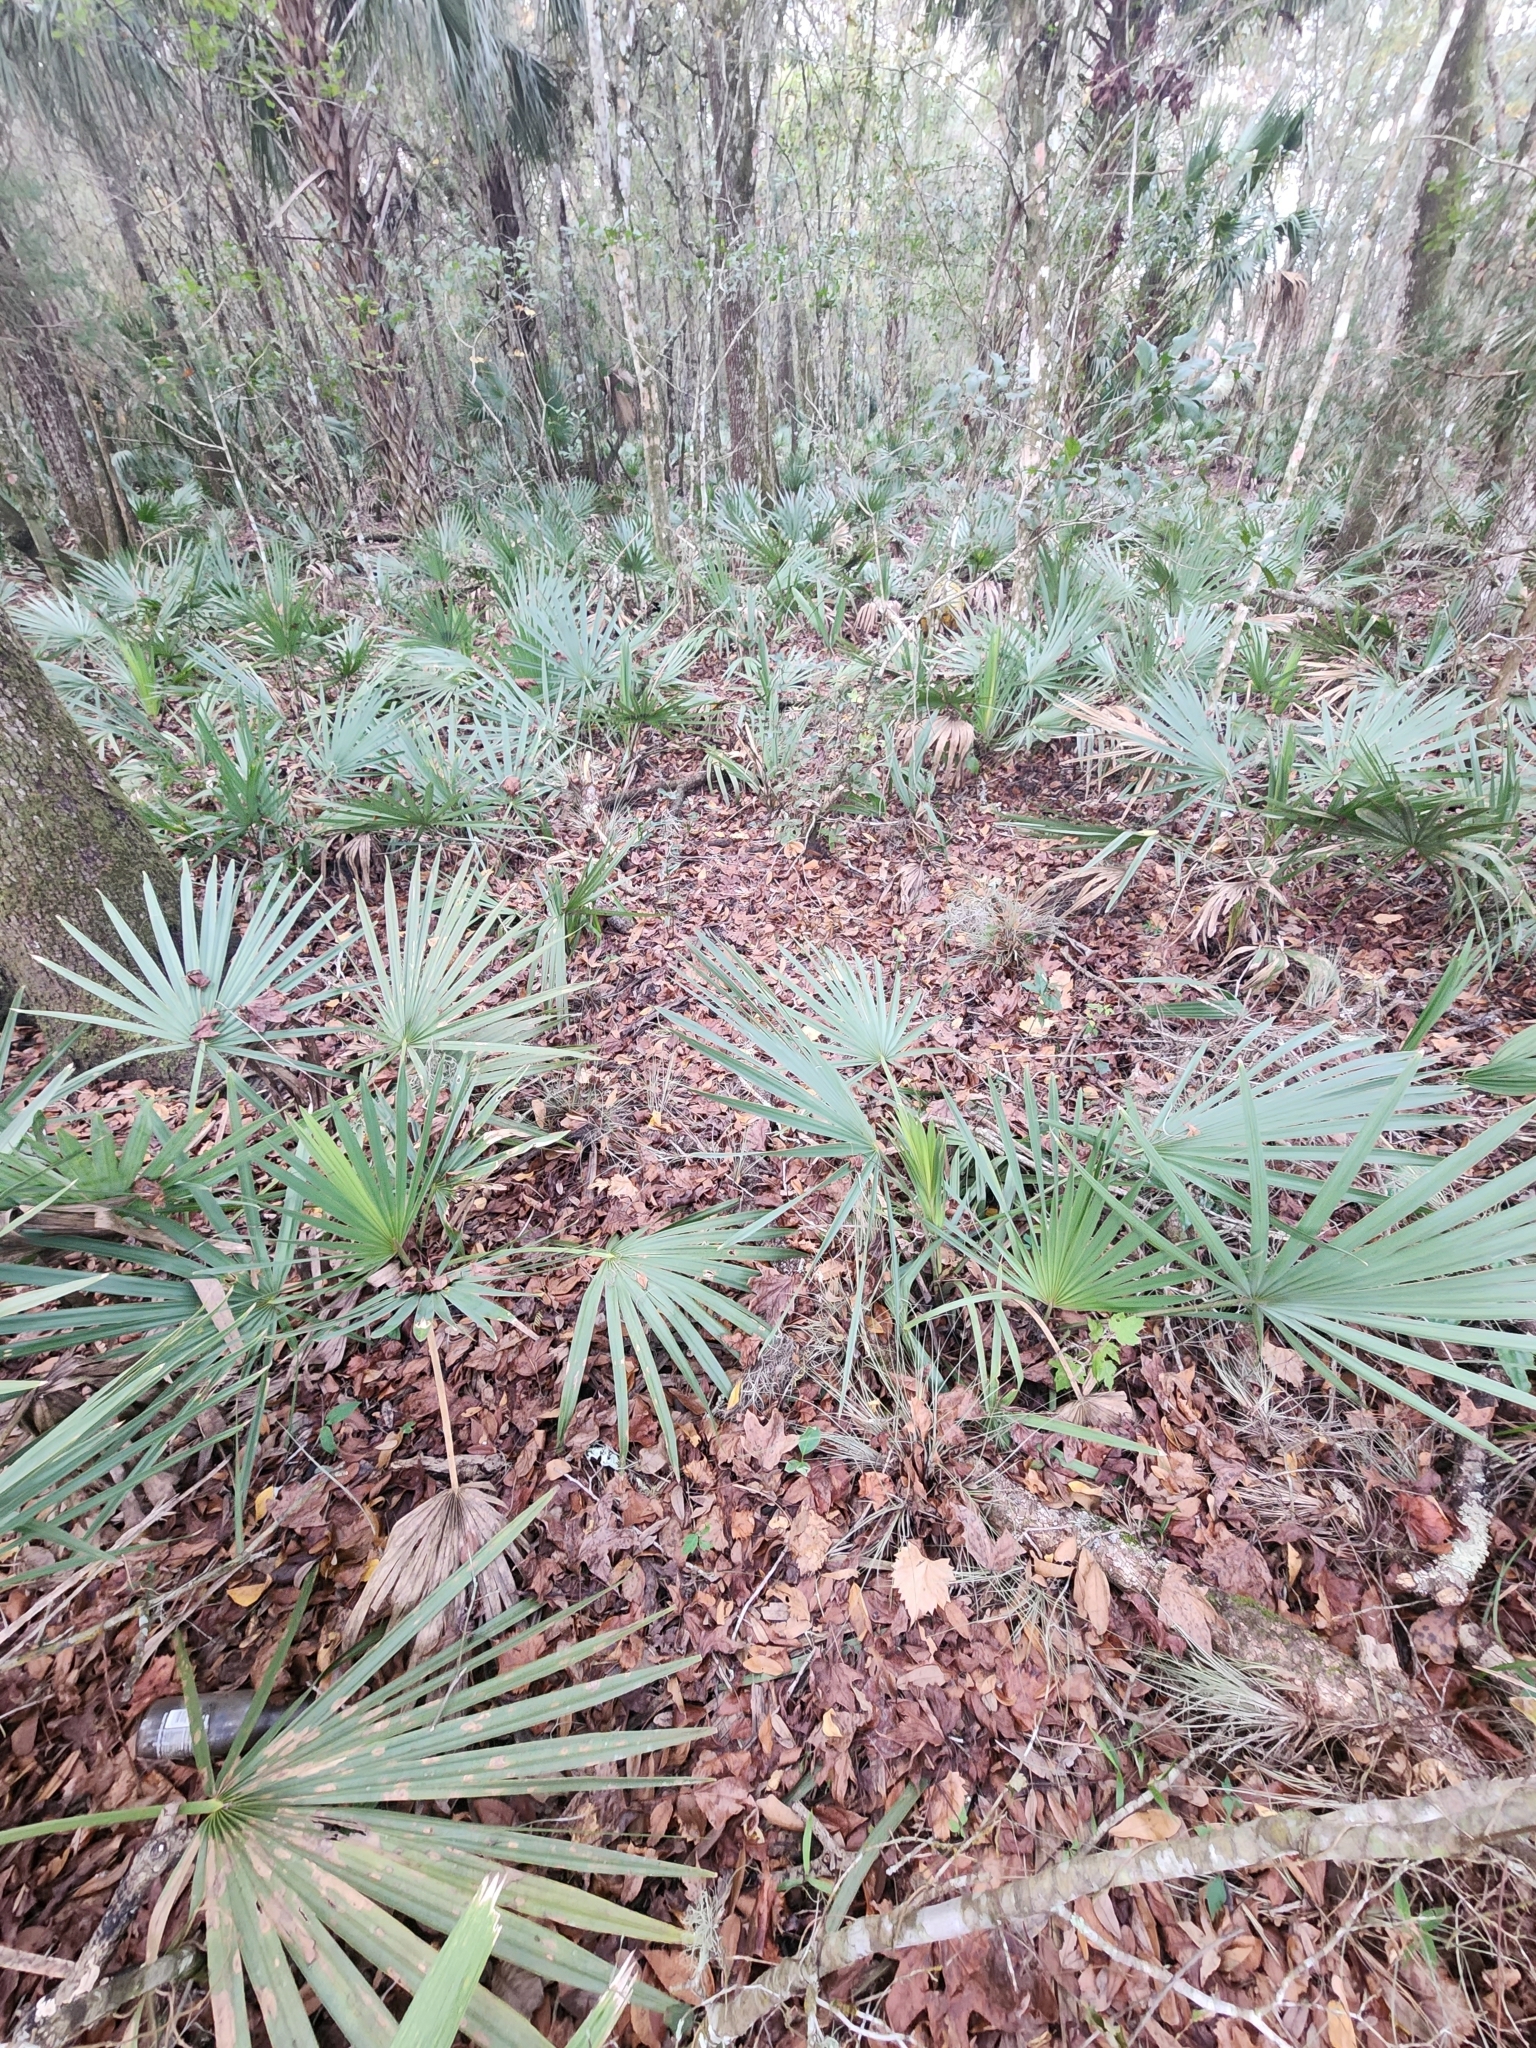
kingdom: Plantae
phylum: Tracheophyta
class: Liliopsida
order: Arecales
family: Arecaceae
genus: Sabal
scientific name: Sabal minor
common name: Dwarf palmetto
